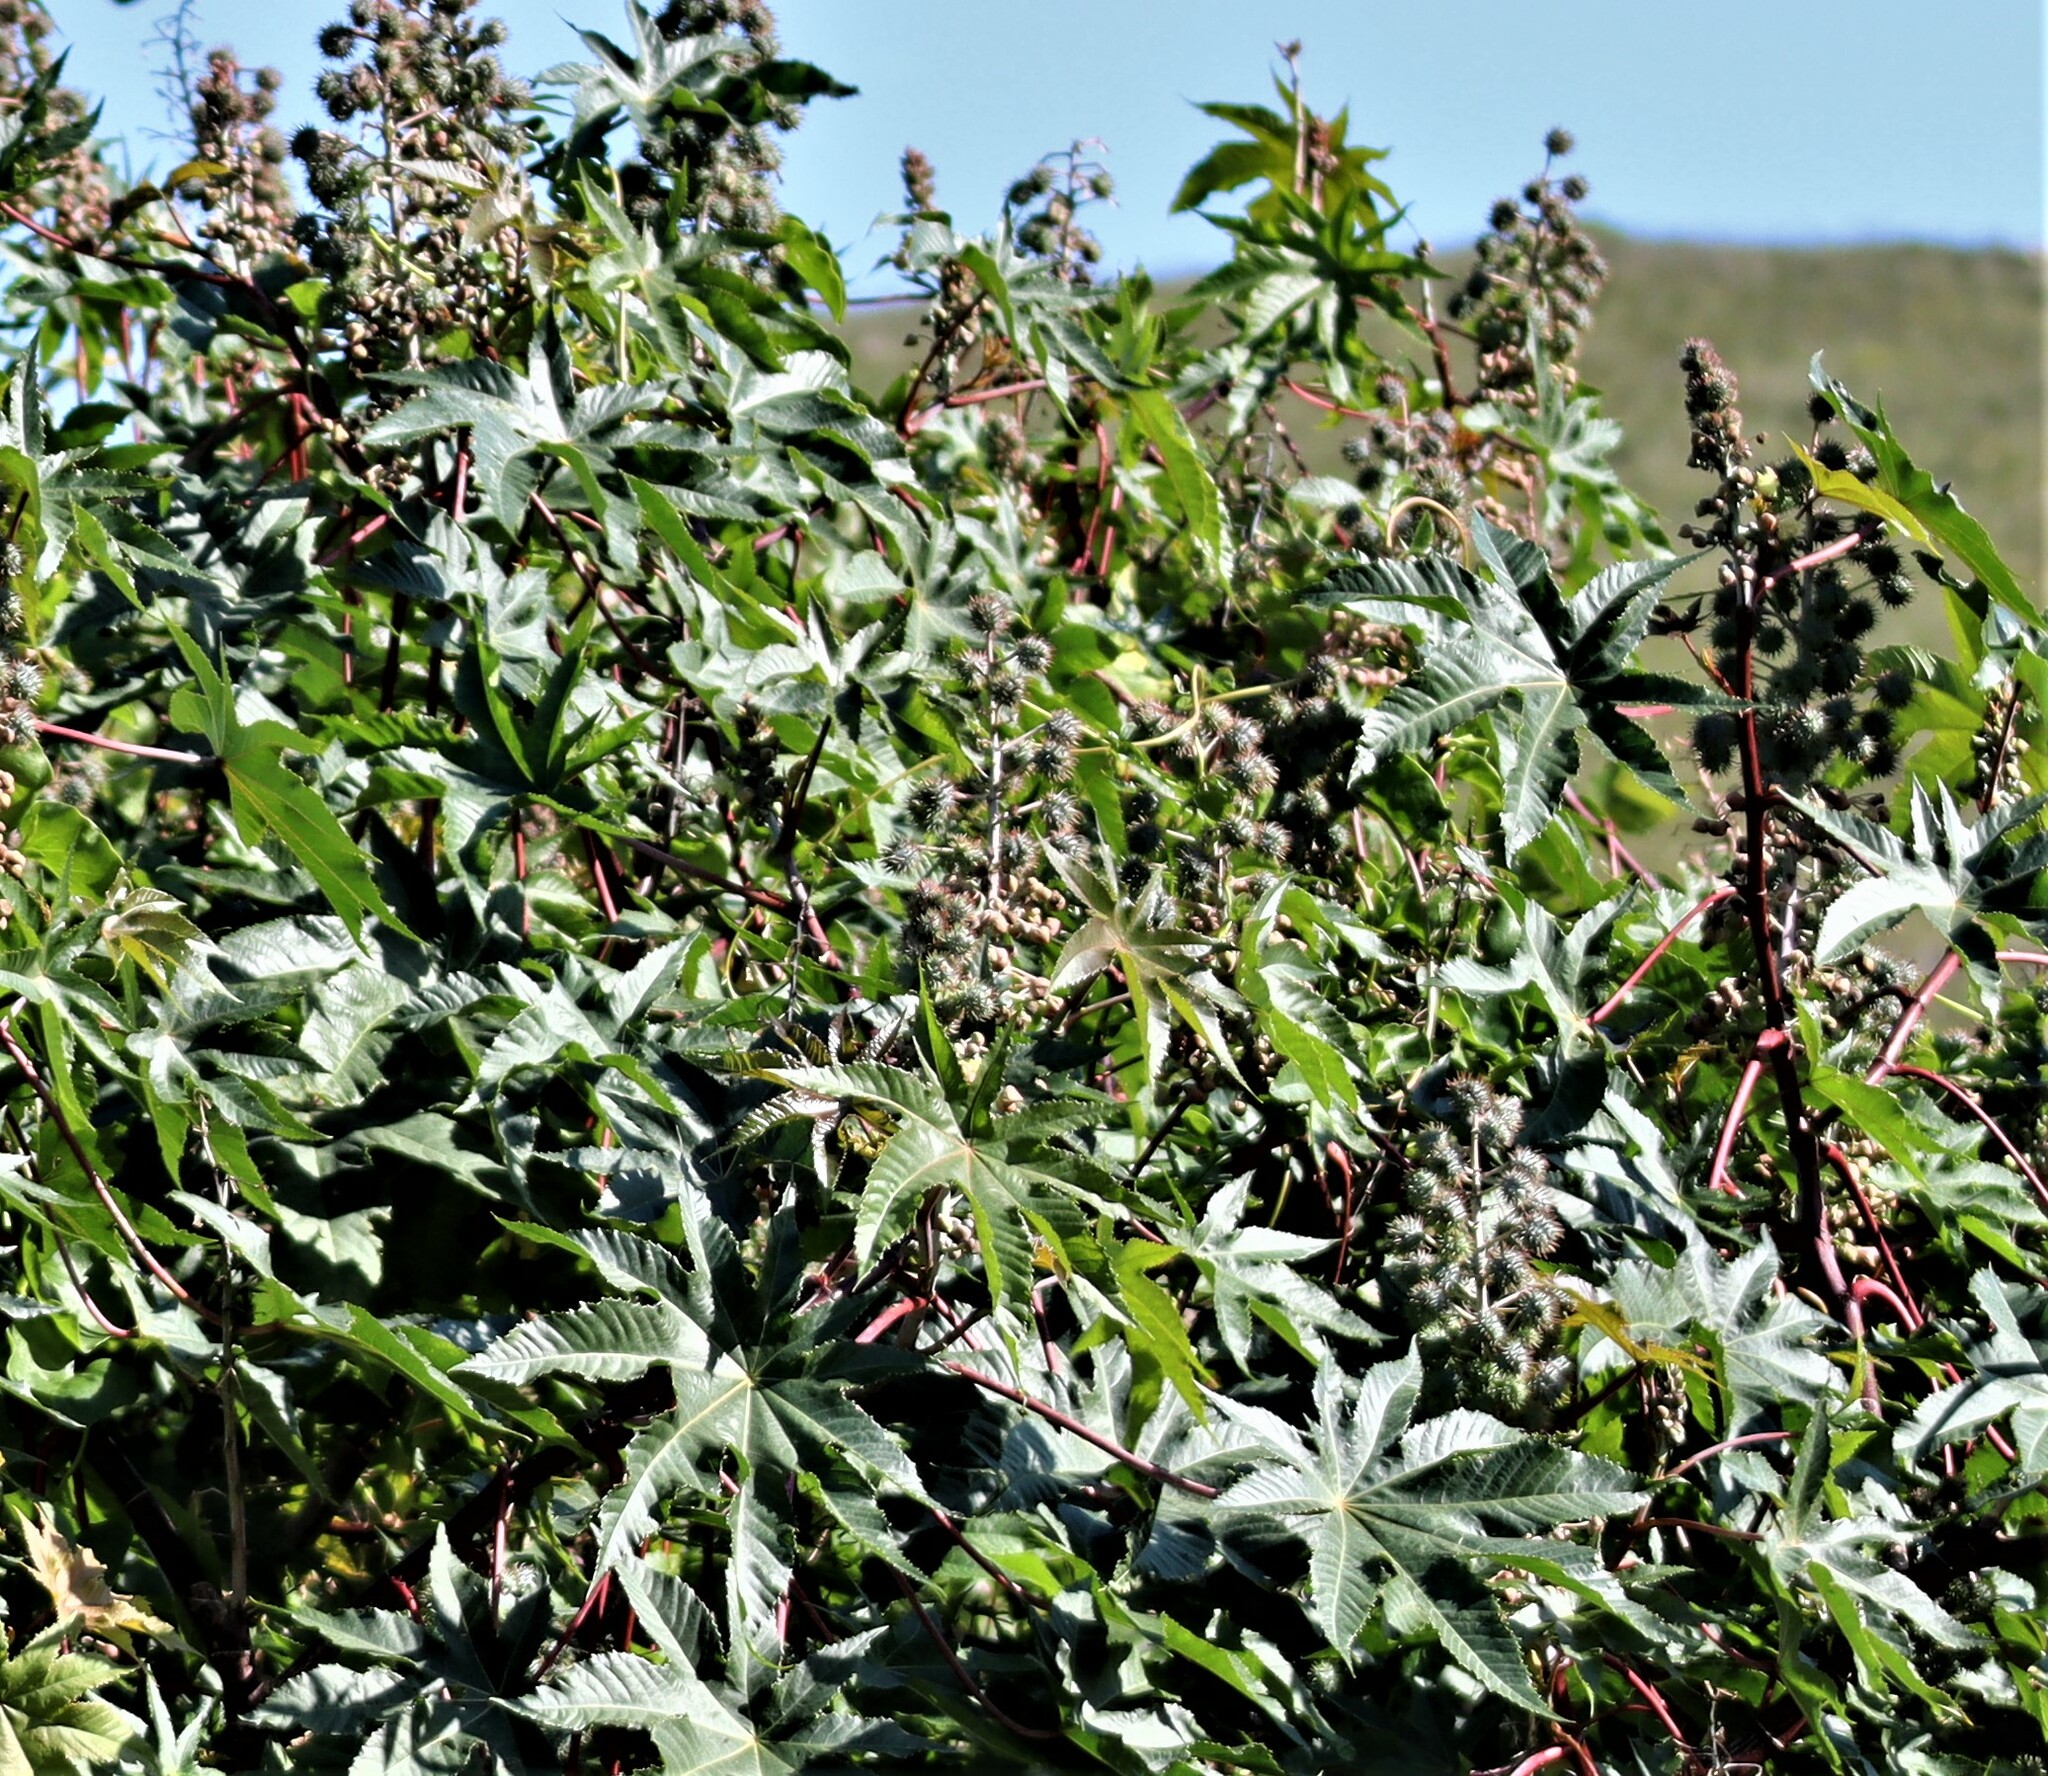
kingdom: Plantae
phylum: Tracheophyta
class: Magnoliopsida
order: Malpighiales
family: Euphorbiaceae
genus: Ricinus
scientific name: Ricinus communis
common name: Castor-oil-plant
